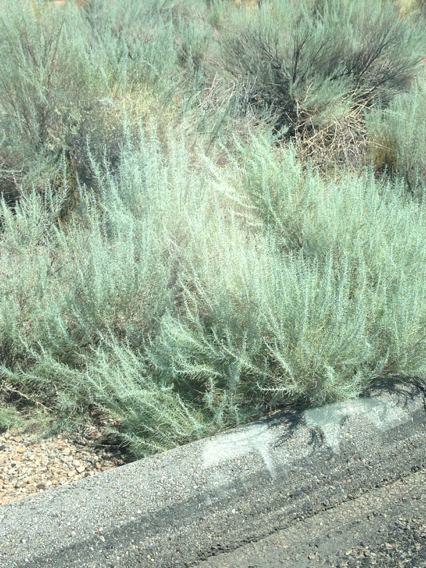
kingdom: Plantae
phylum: Tracheophyta
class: Magnoliopsida
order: Asterales
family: Asteraceae
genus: Artemisia
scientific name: Artemisia filifolia
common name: Sand-sage
